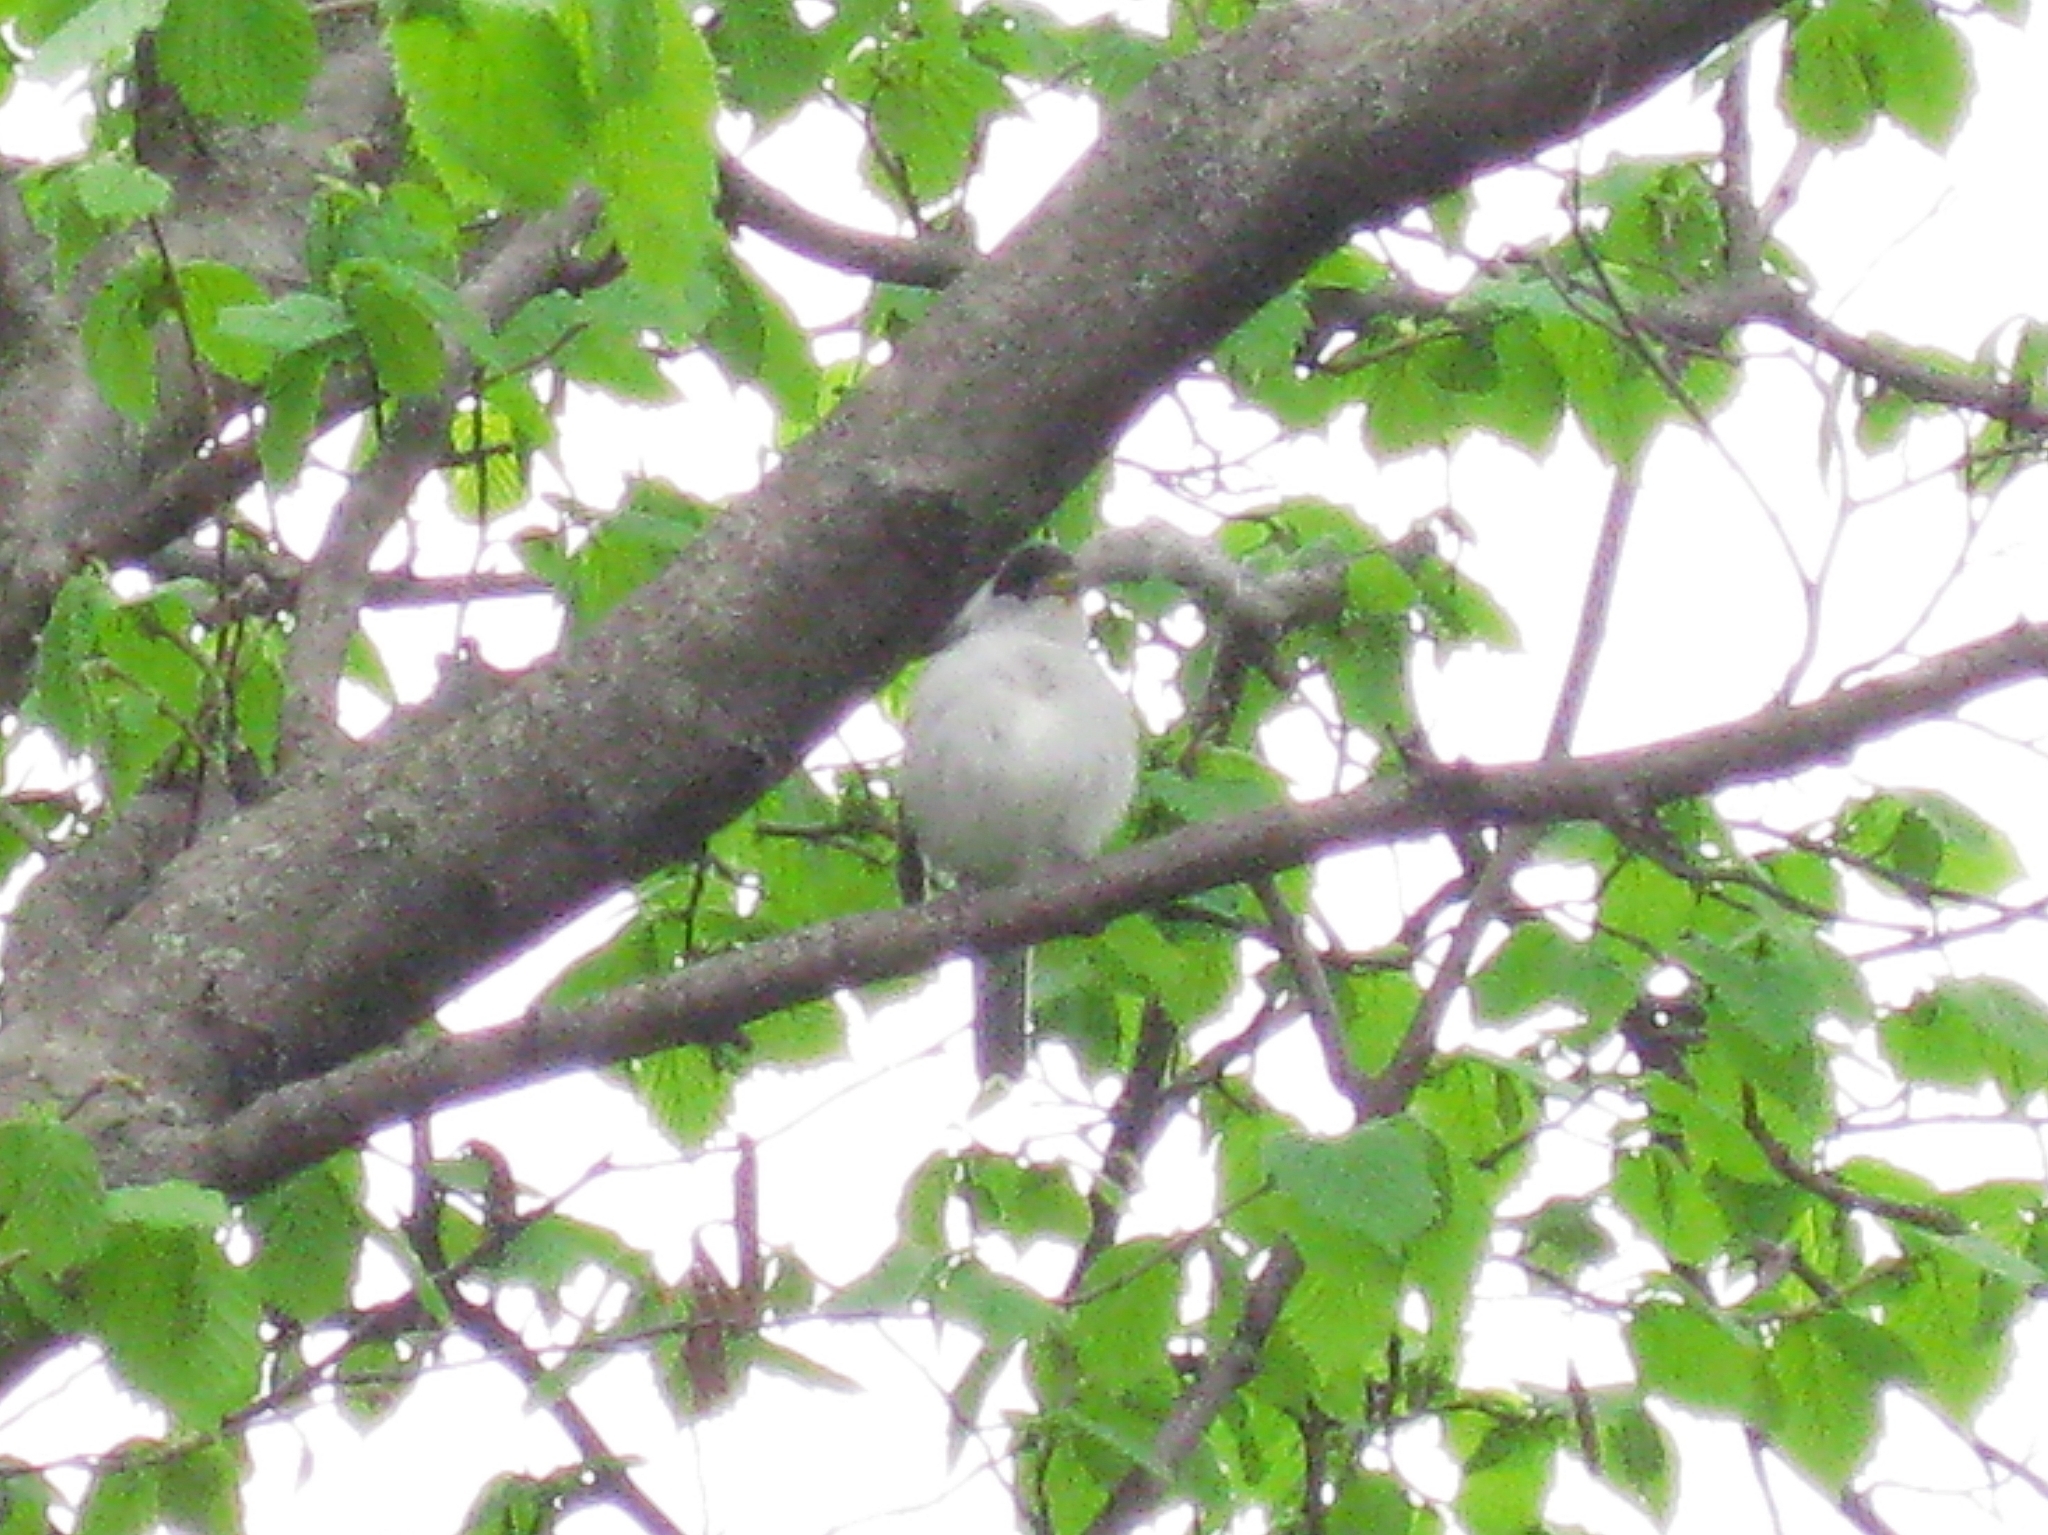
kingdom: Animalia
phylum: Chordata
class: Aves
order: Passeriformes
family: Sylviidae
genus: Sylvia
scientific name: Sylvia atricapilla
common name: Eurasian blackcap
